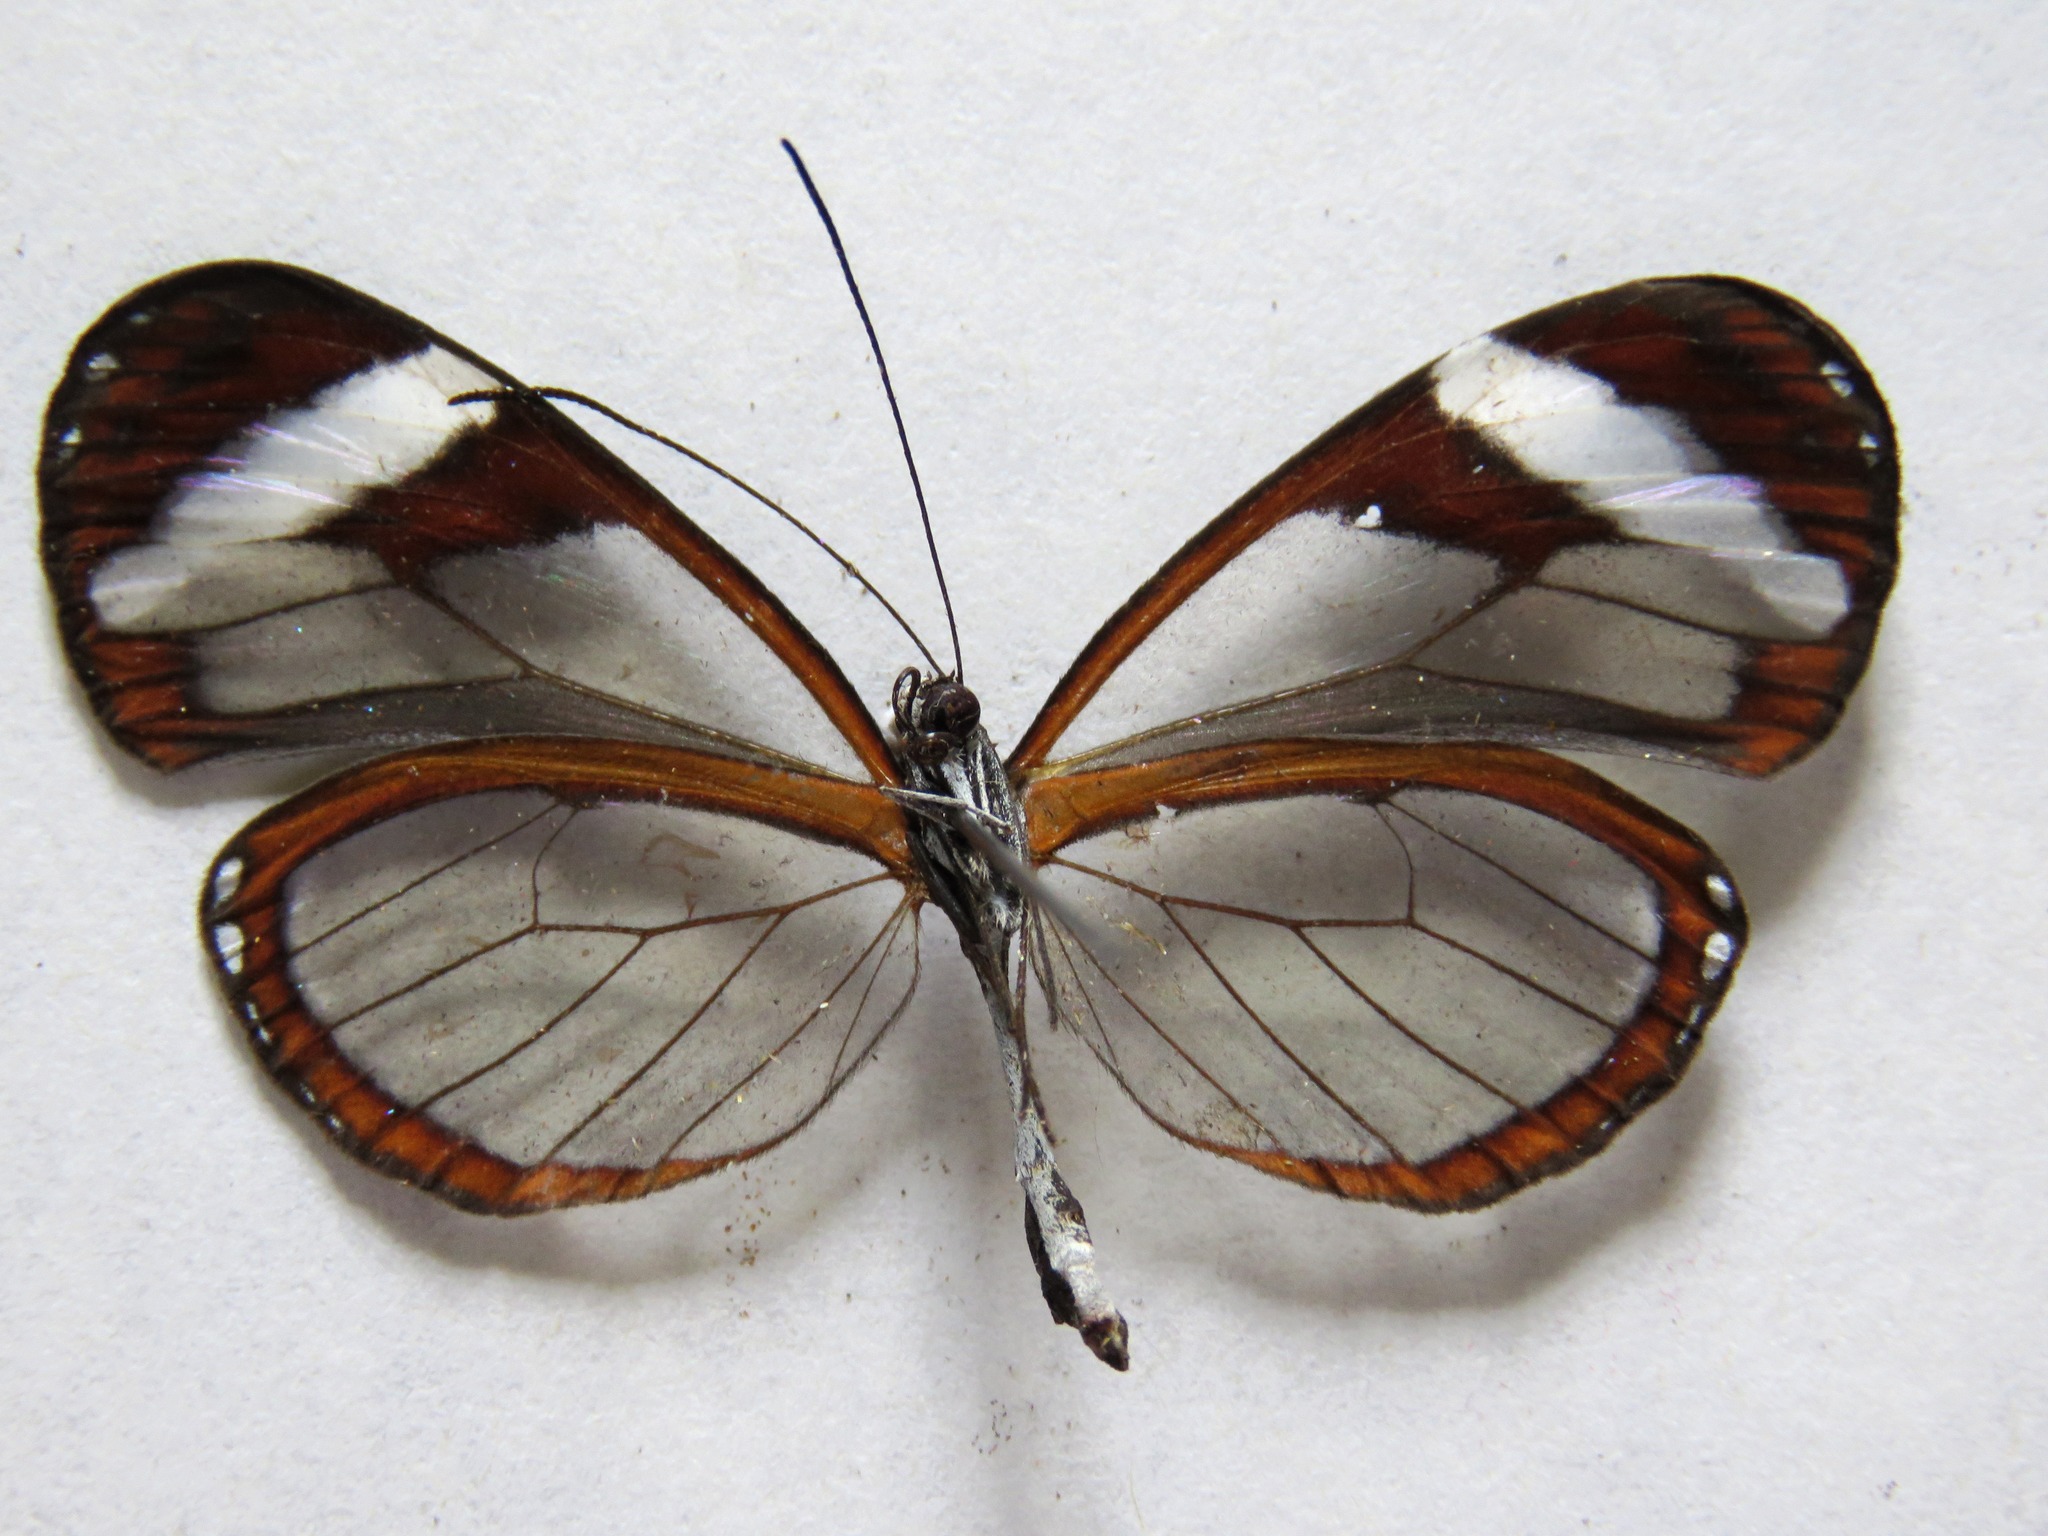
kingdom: Animalia
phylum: Arthropoda
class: Insecta
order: Lepidoptera
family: Nymphalidae
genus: Oleria
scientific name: Oleria paula
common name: Paula's clearwing
